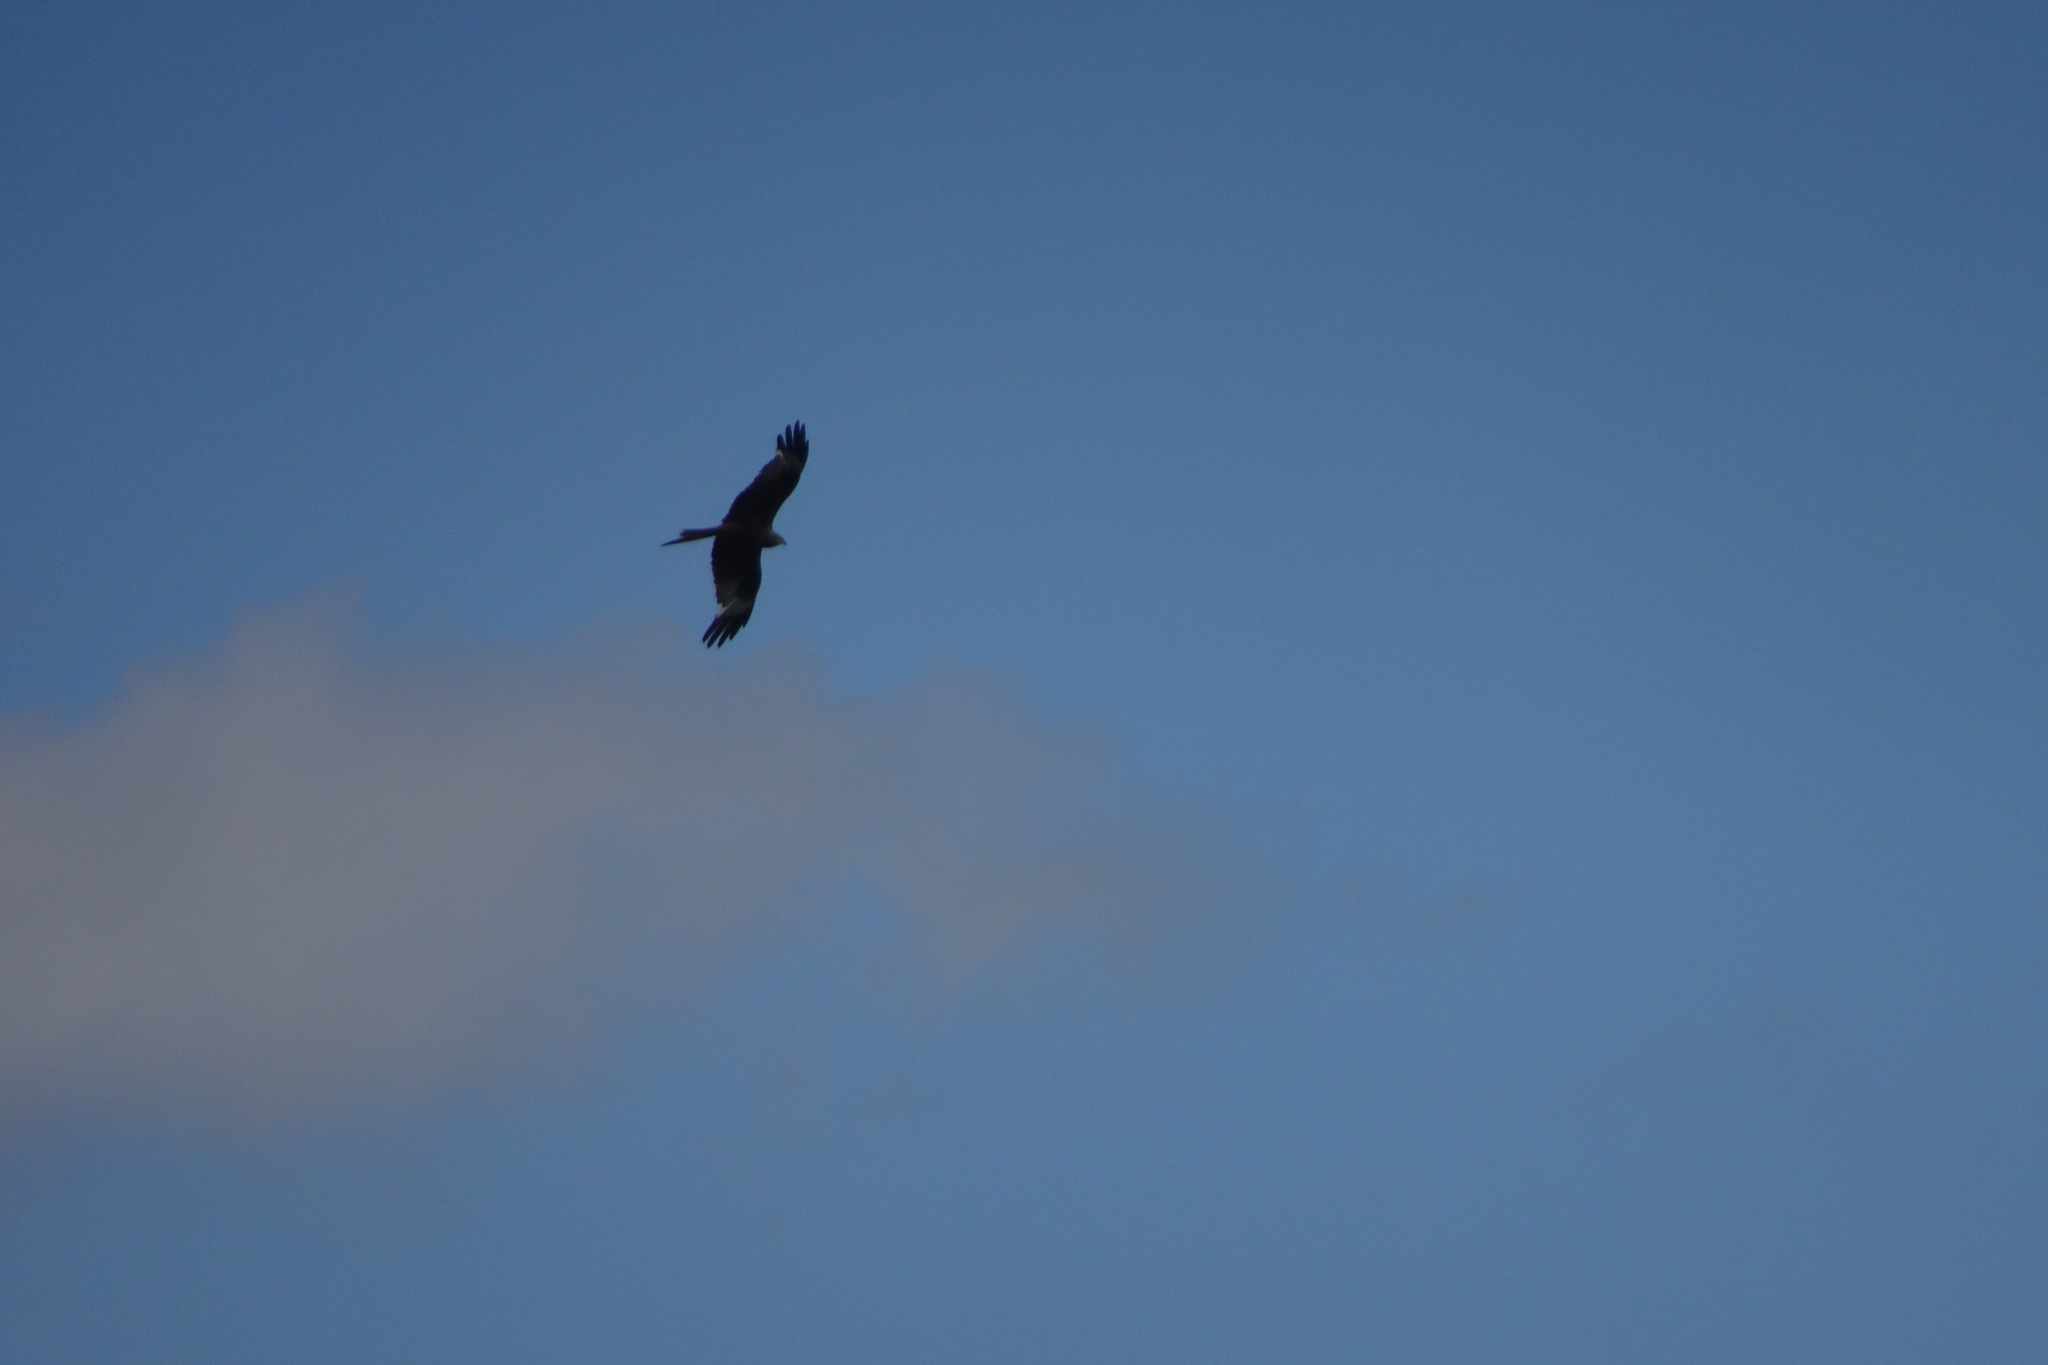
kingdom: Animalia
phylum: Chordata
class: Aves
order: Accipitriformes
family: Accipitridae
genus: Milvus
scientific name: Milvus milvus
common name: Red kite
